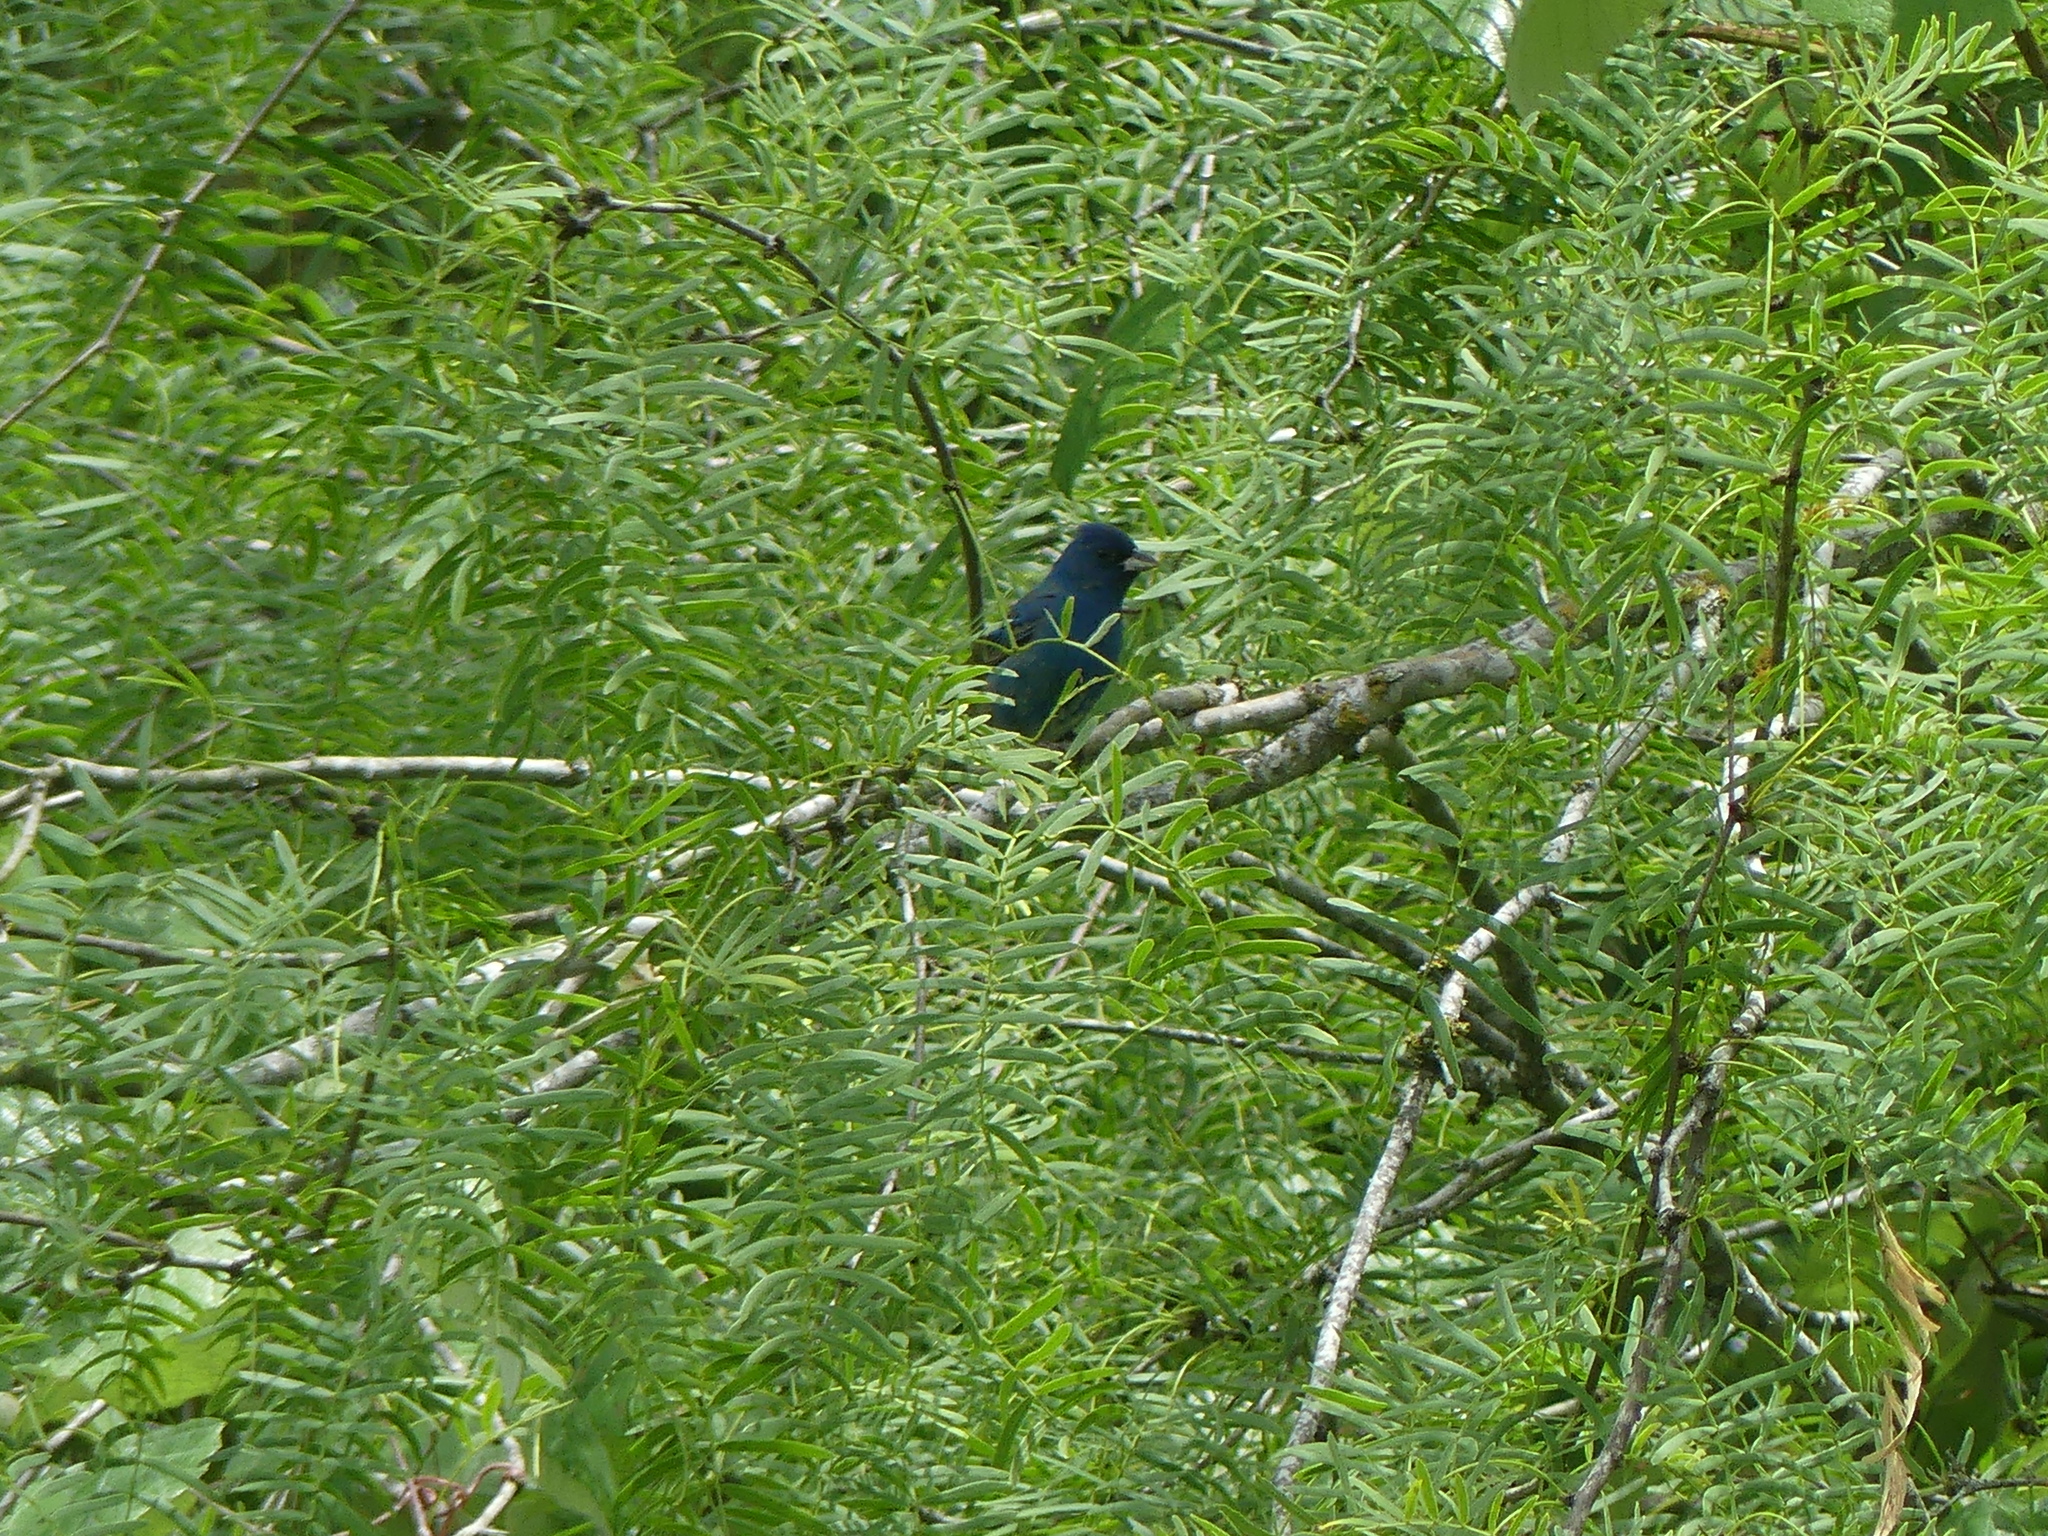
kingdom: Animalia
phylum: Chordata
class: Aves
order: Passeriformes
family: Cardinalidae
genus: Passerina
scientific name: Passerina cyanea
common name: Indigo bunting
